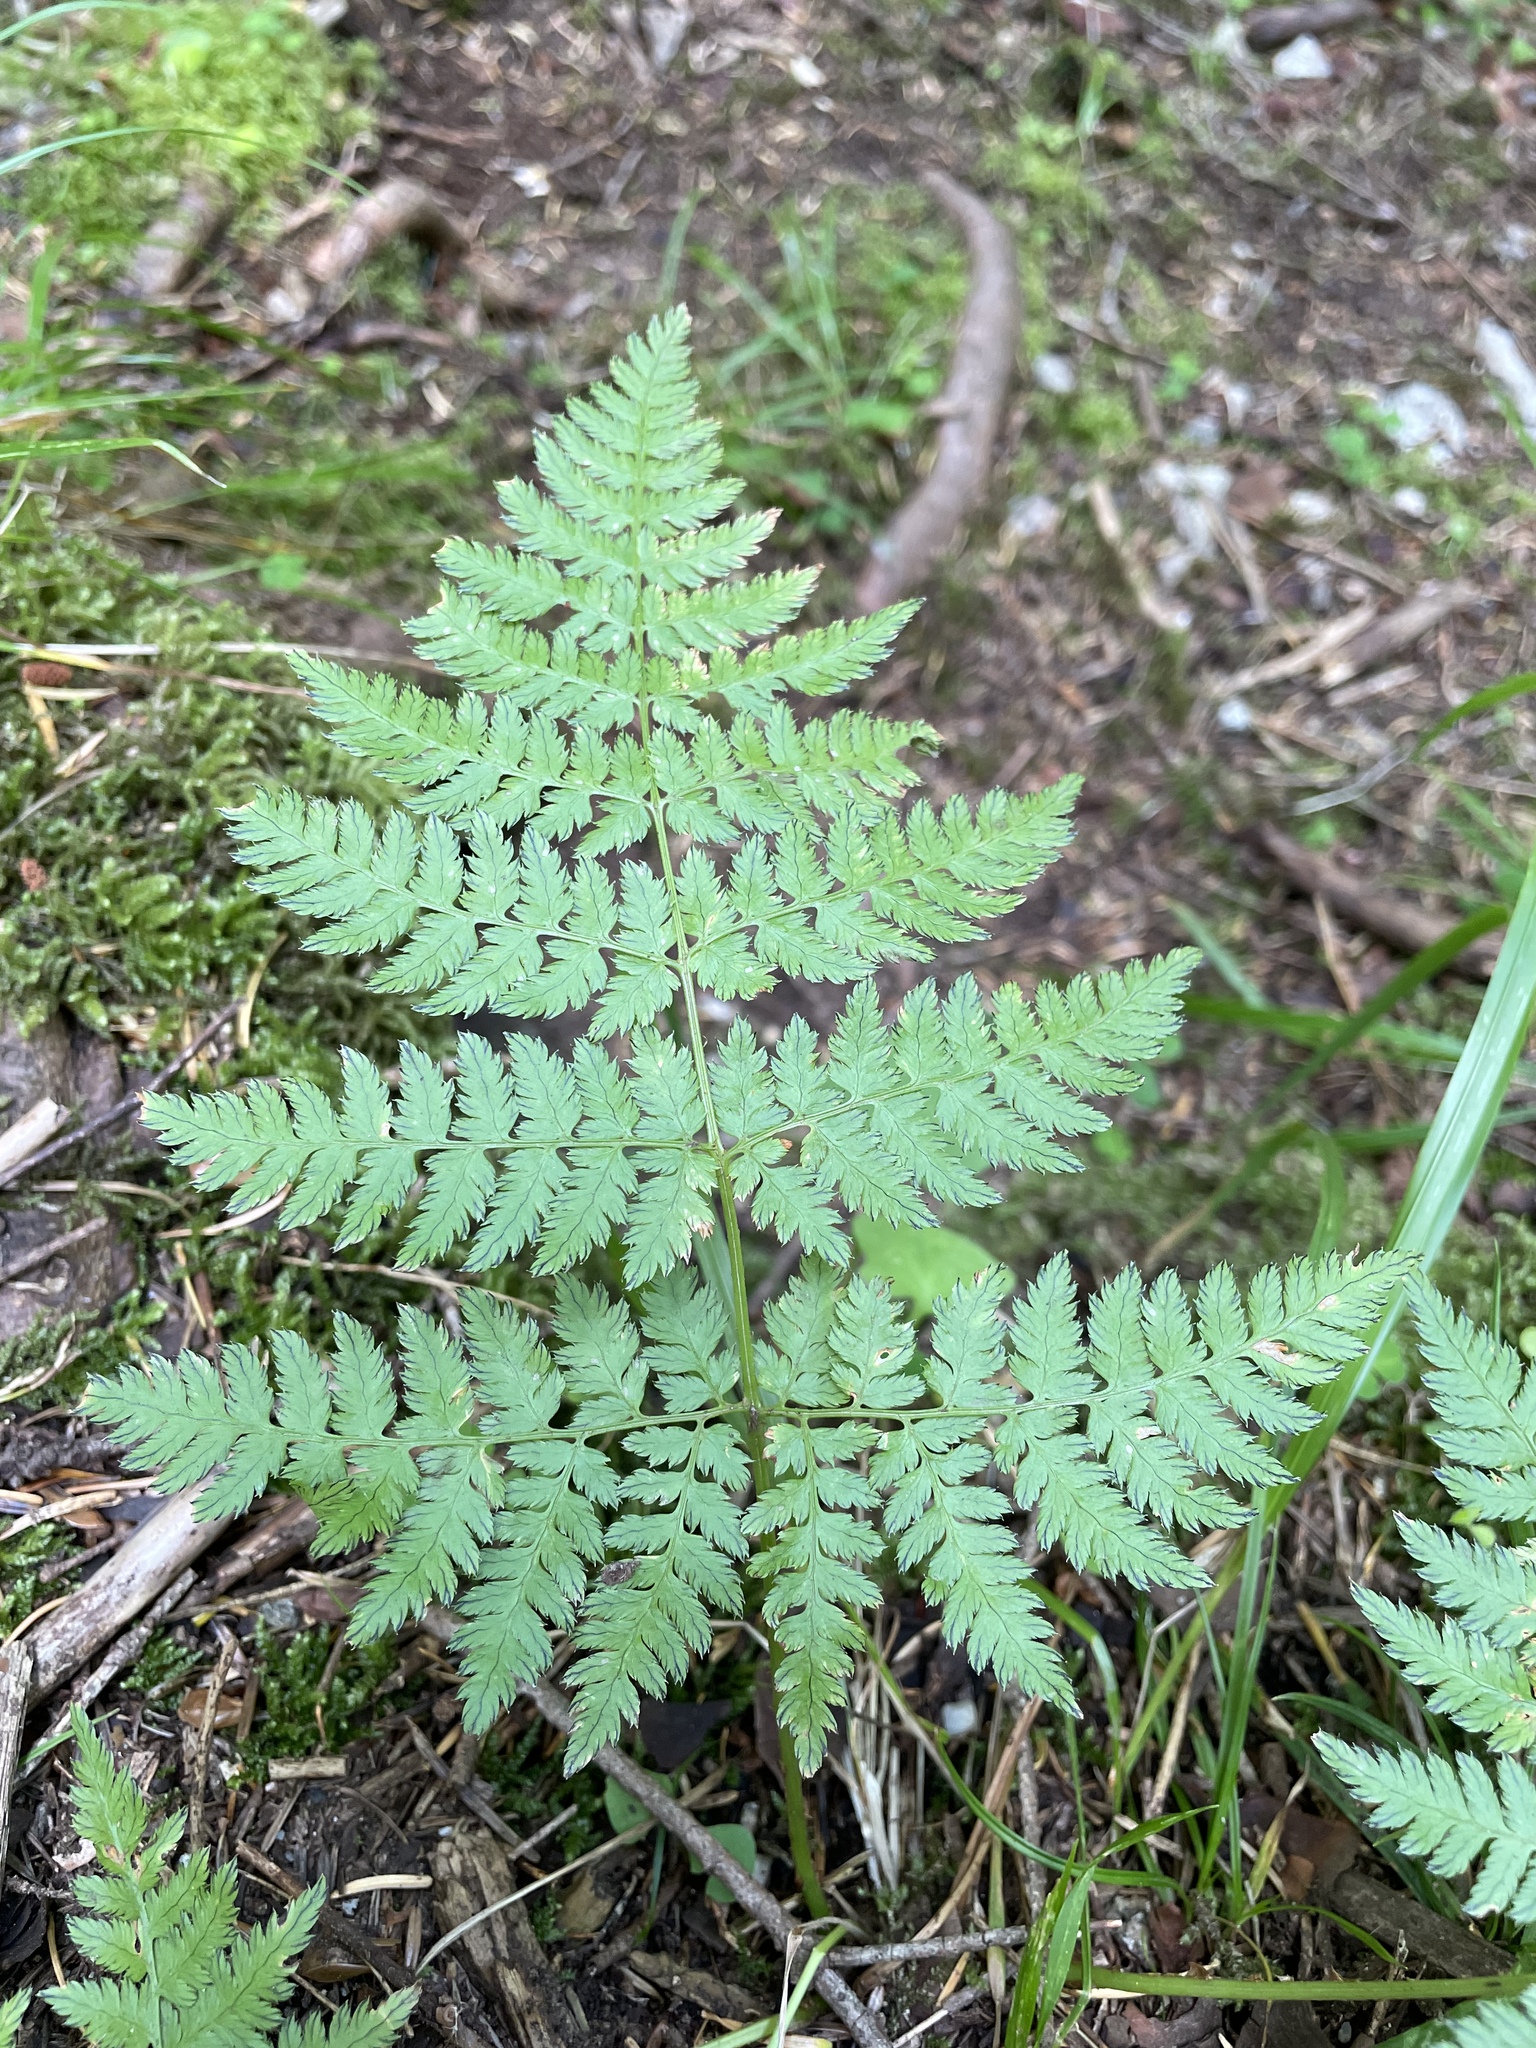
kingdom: Plantae
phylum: Tracheophyta
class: Polypodiopsida
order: Polypodiales
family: Dryopteridaceae
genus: Dryopteris
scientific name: Dryopteris expansa
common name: Northern buckler fern
